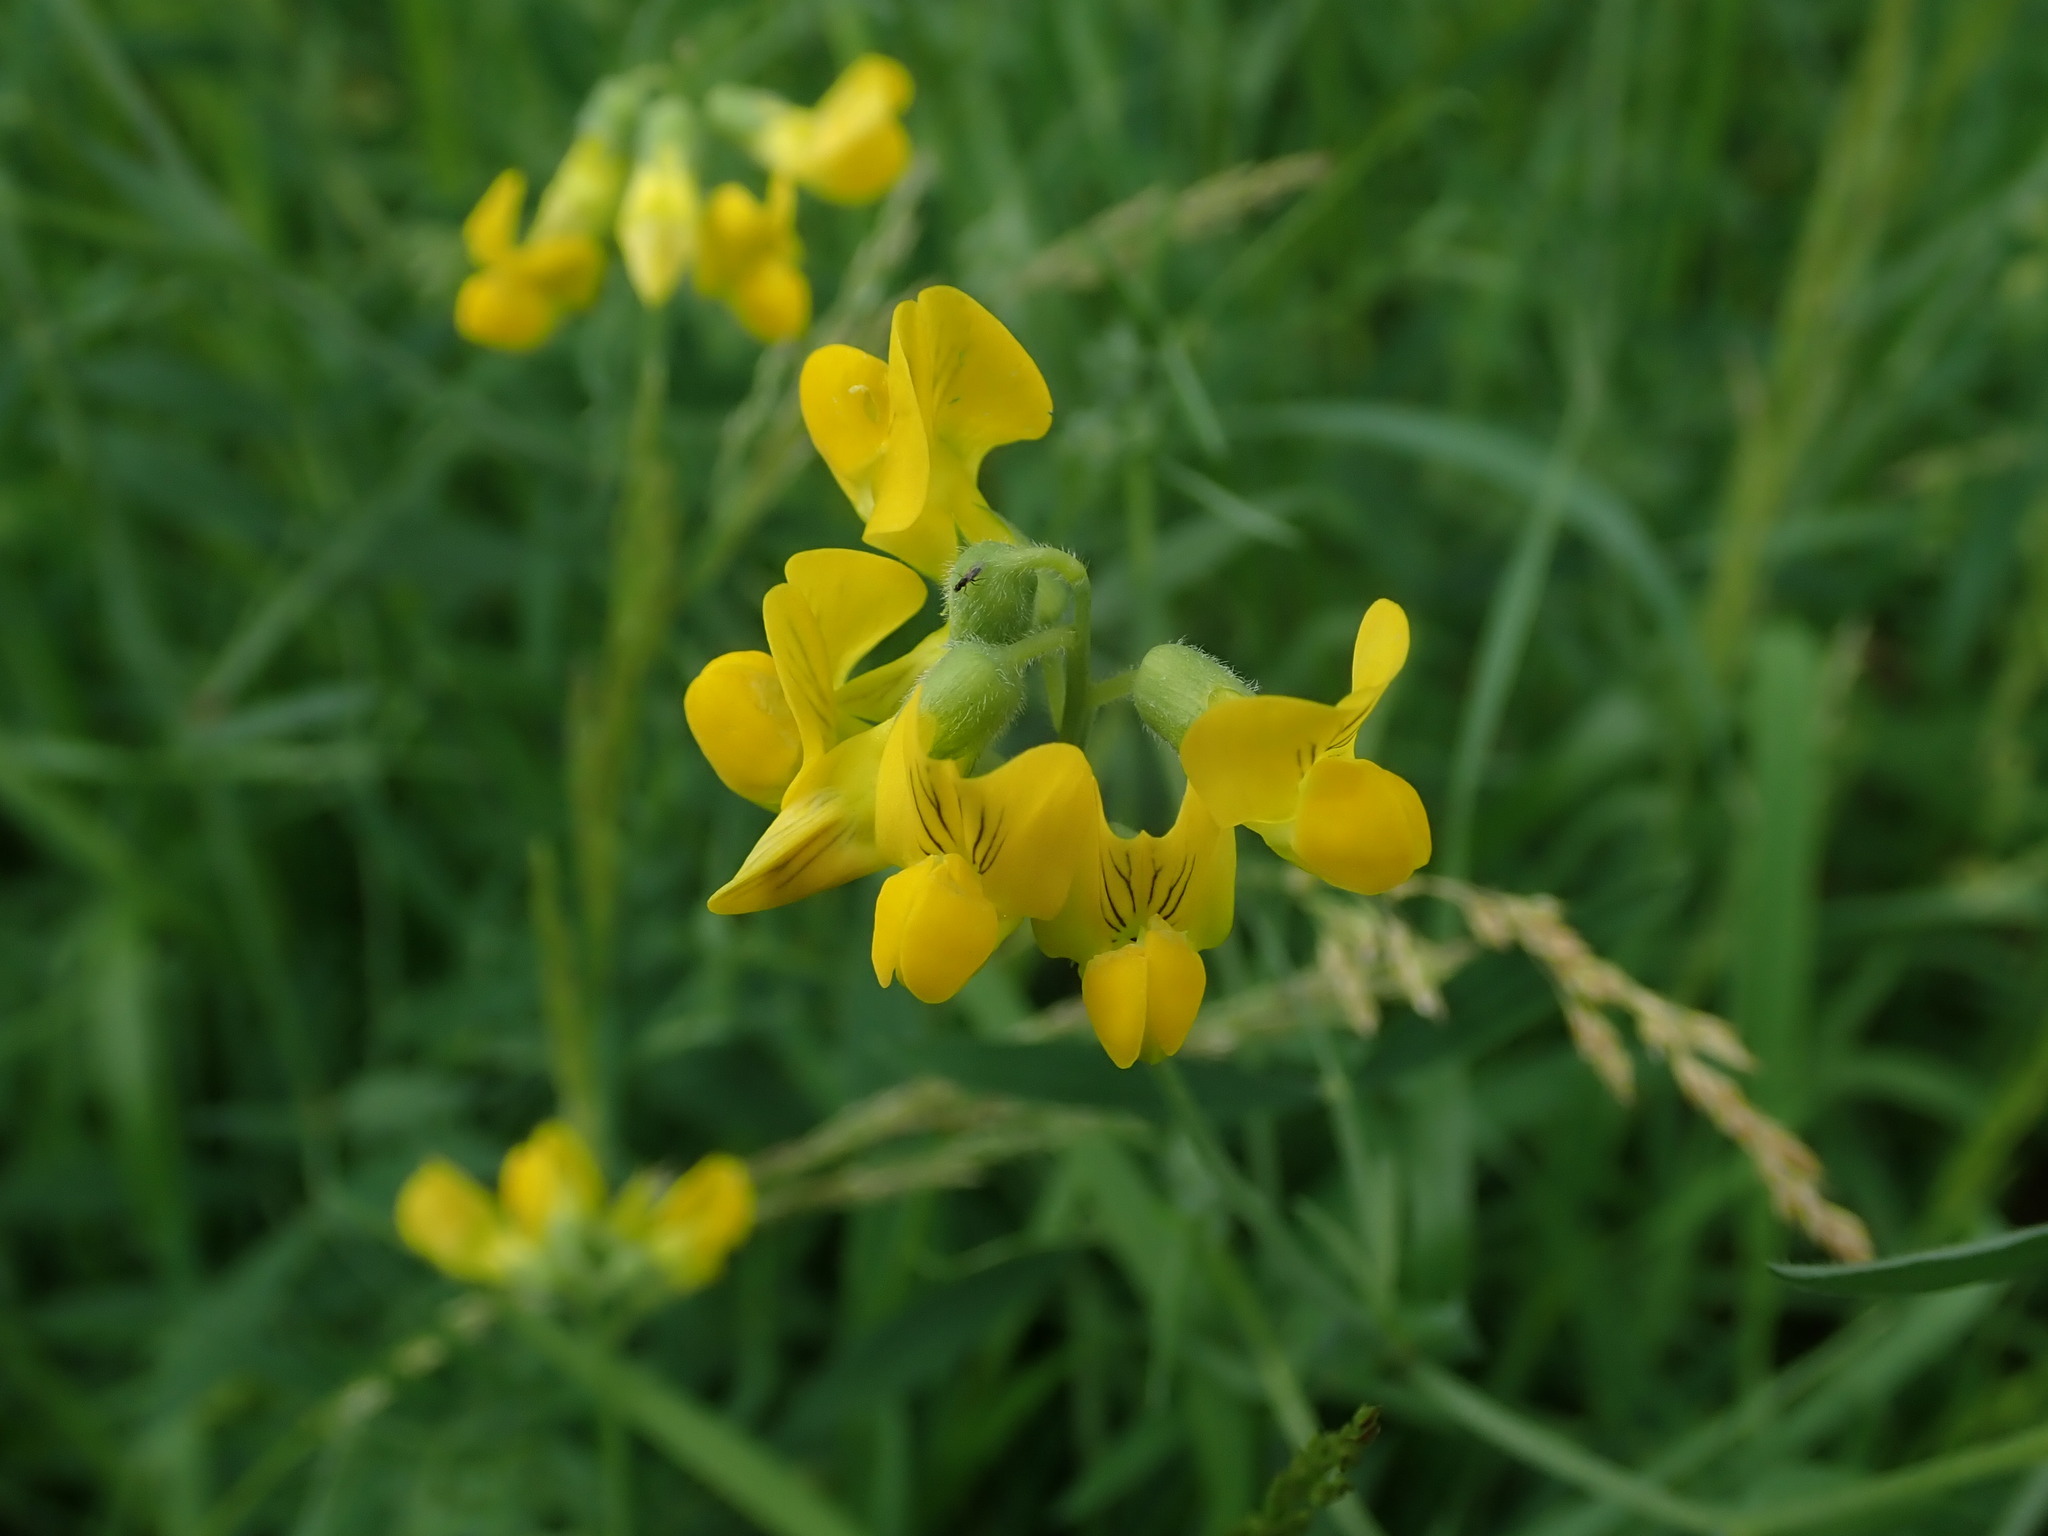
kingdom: Plantae
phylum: Tracheophyta
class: Magnoliopsida
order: Fabales
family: Fabaceae
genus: Lathyrus
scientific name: Lathyrus pratensis
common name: Meadow vetchling
